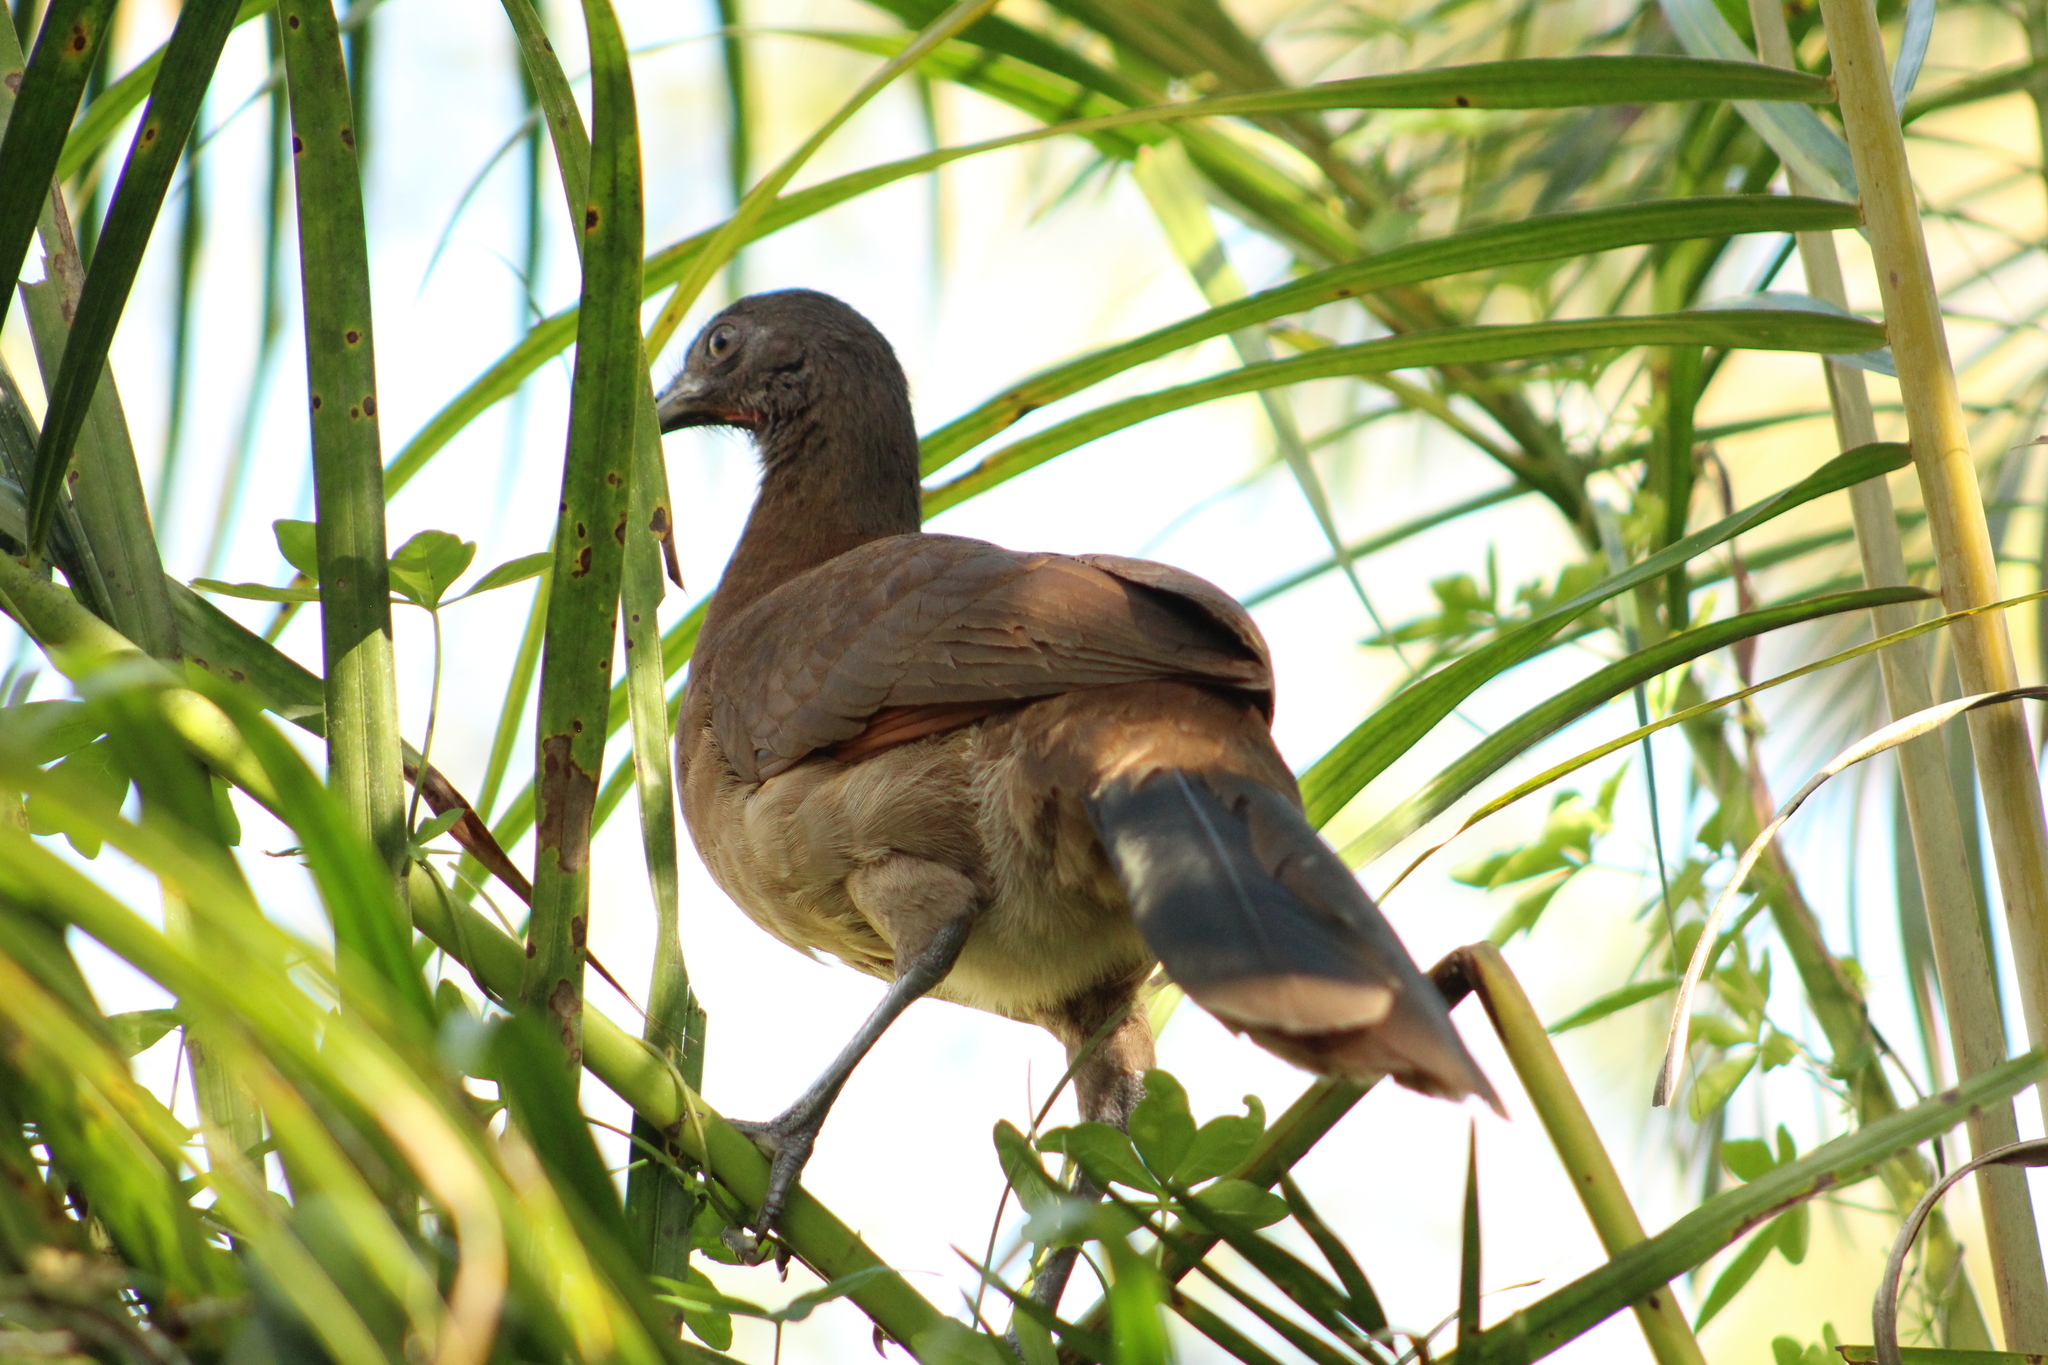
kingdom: Animalia
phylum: Chordata
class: Aves
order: Galliformes
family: Cracidae
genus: Ortalis
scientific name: Ortalis cinereiceps
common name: Grey-headed chachalaca
